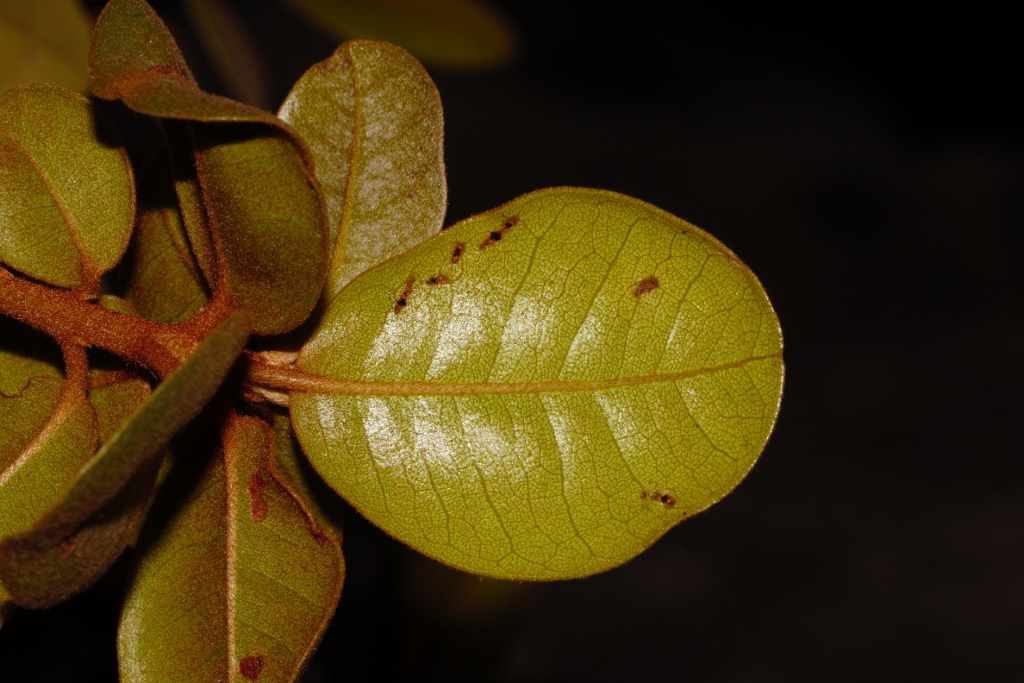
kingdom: Plantae
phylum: Tracheophyta
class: Magnoliopsida
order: Ericales
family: Sapotaceae
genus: Vitellariopsis
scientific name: Vitellariopsis ferruginea
